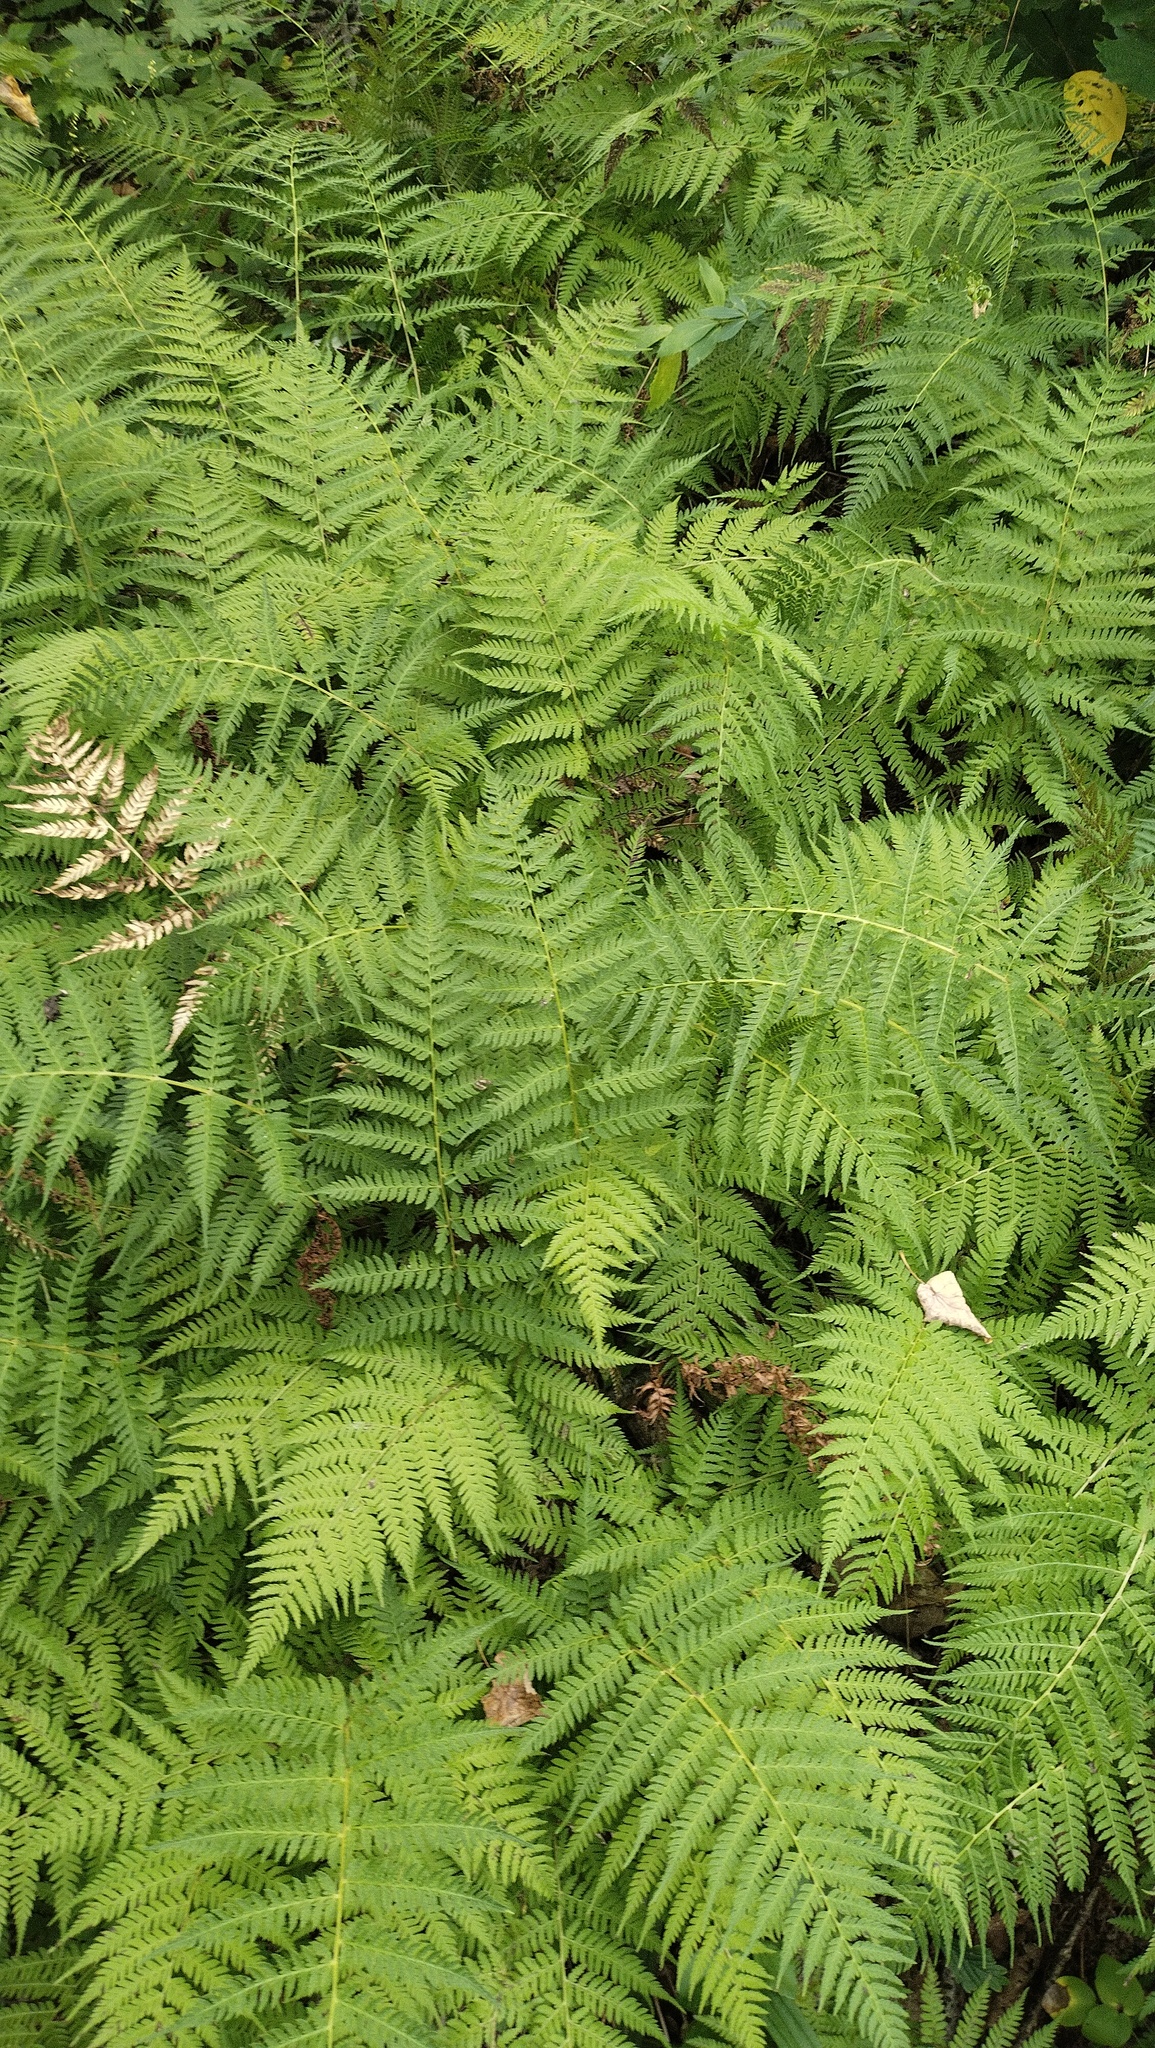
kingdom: Plantae
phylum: Tracheophyta
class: Polypodiopsida
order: Polypodiales
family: Athyriaceae
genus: Athyrium
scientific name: Athyrium yokoscense
